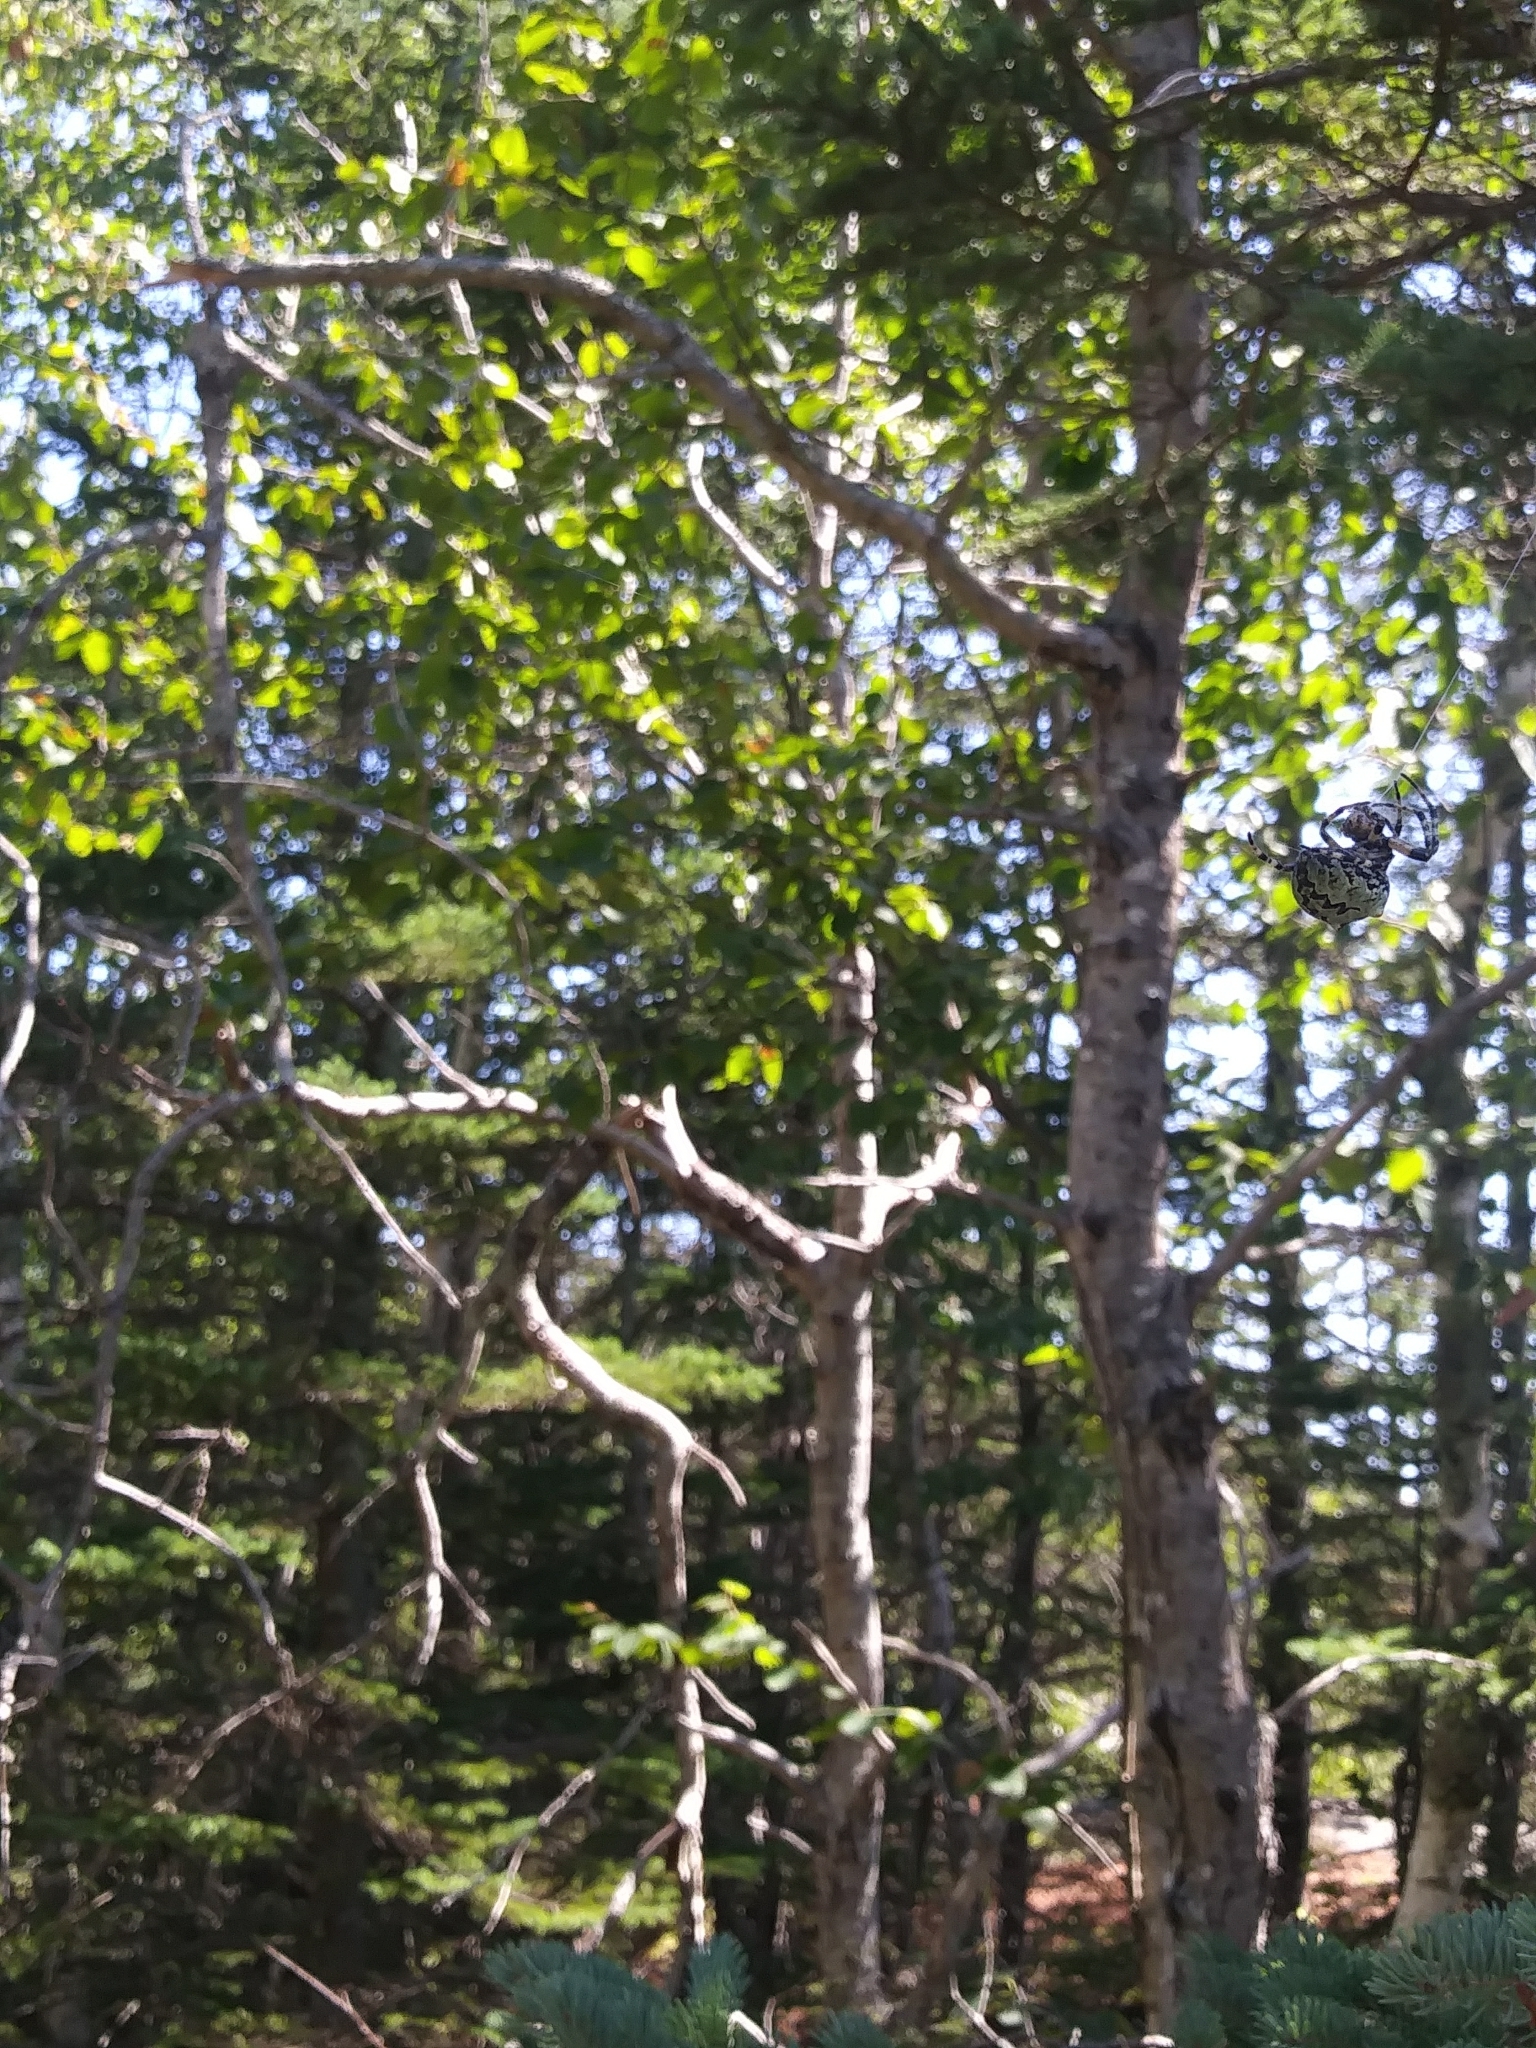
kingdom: Animalia
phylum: Arthropoda
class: Arachnida
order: Araneae
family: Araneidae
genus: Araneus
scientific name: Araneus bicentenarius
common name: Giant lichen orbweaver
